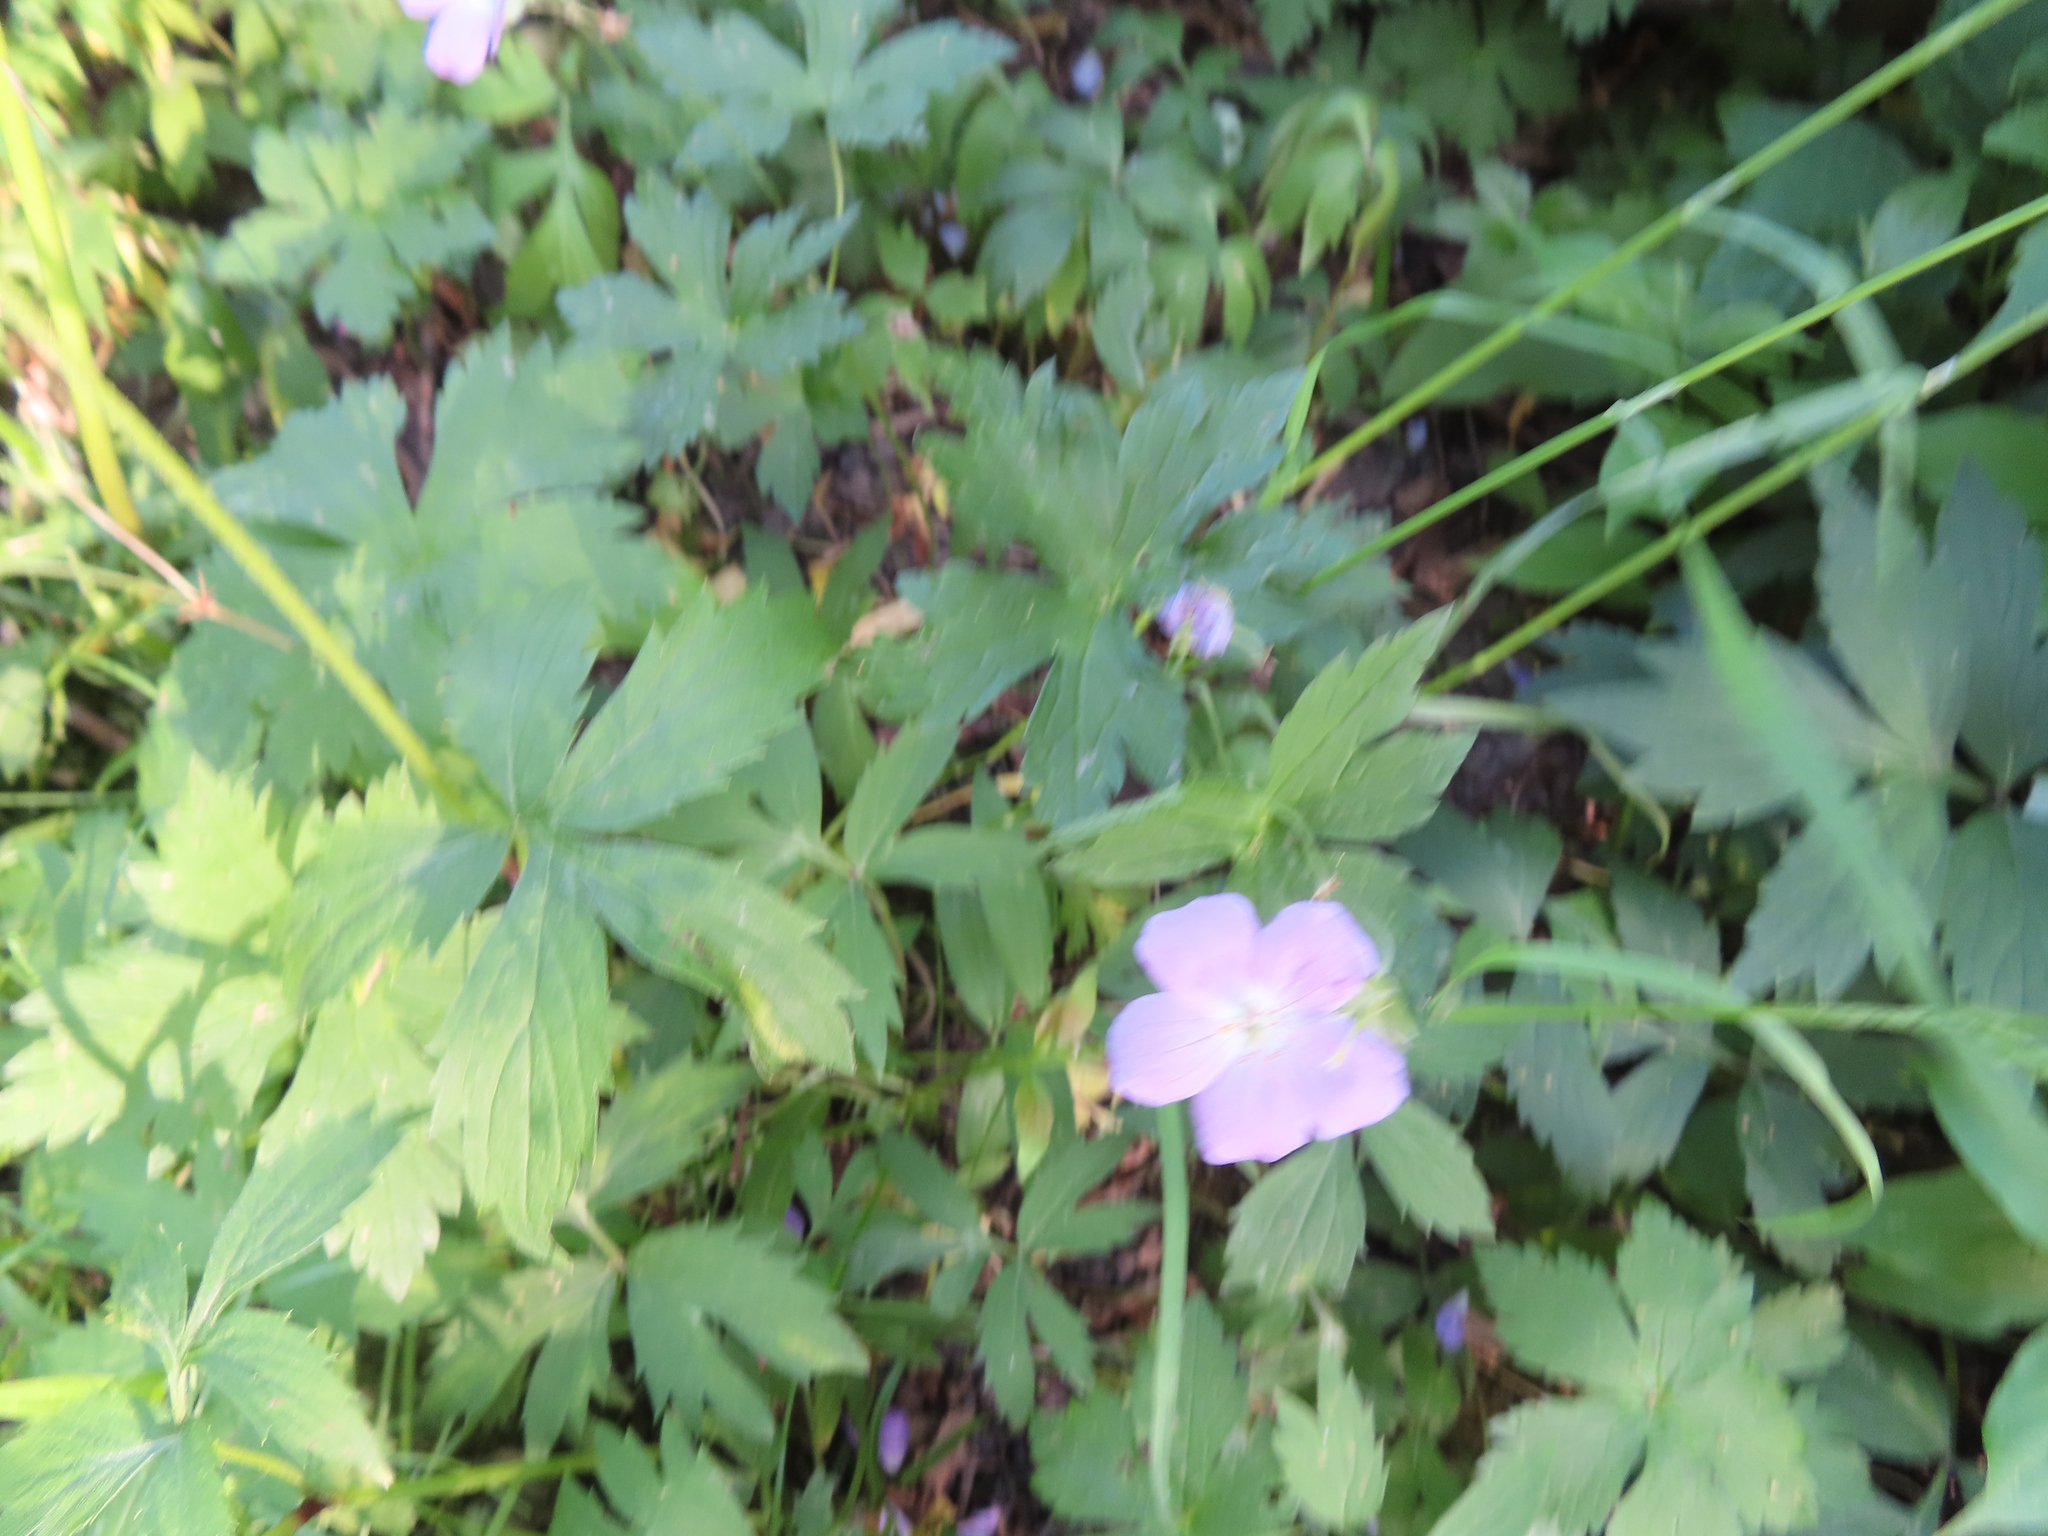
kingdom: Plantae
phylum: Tracheophyta
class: Magnoliopsida
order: Geraniales
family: Geraniaceae
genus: Geranium
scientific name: Geranium maculatum
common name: Spotted geranium
